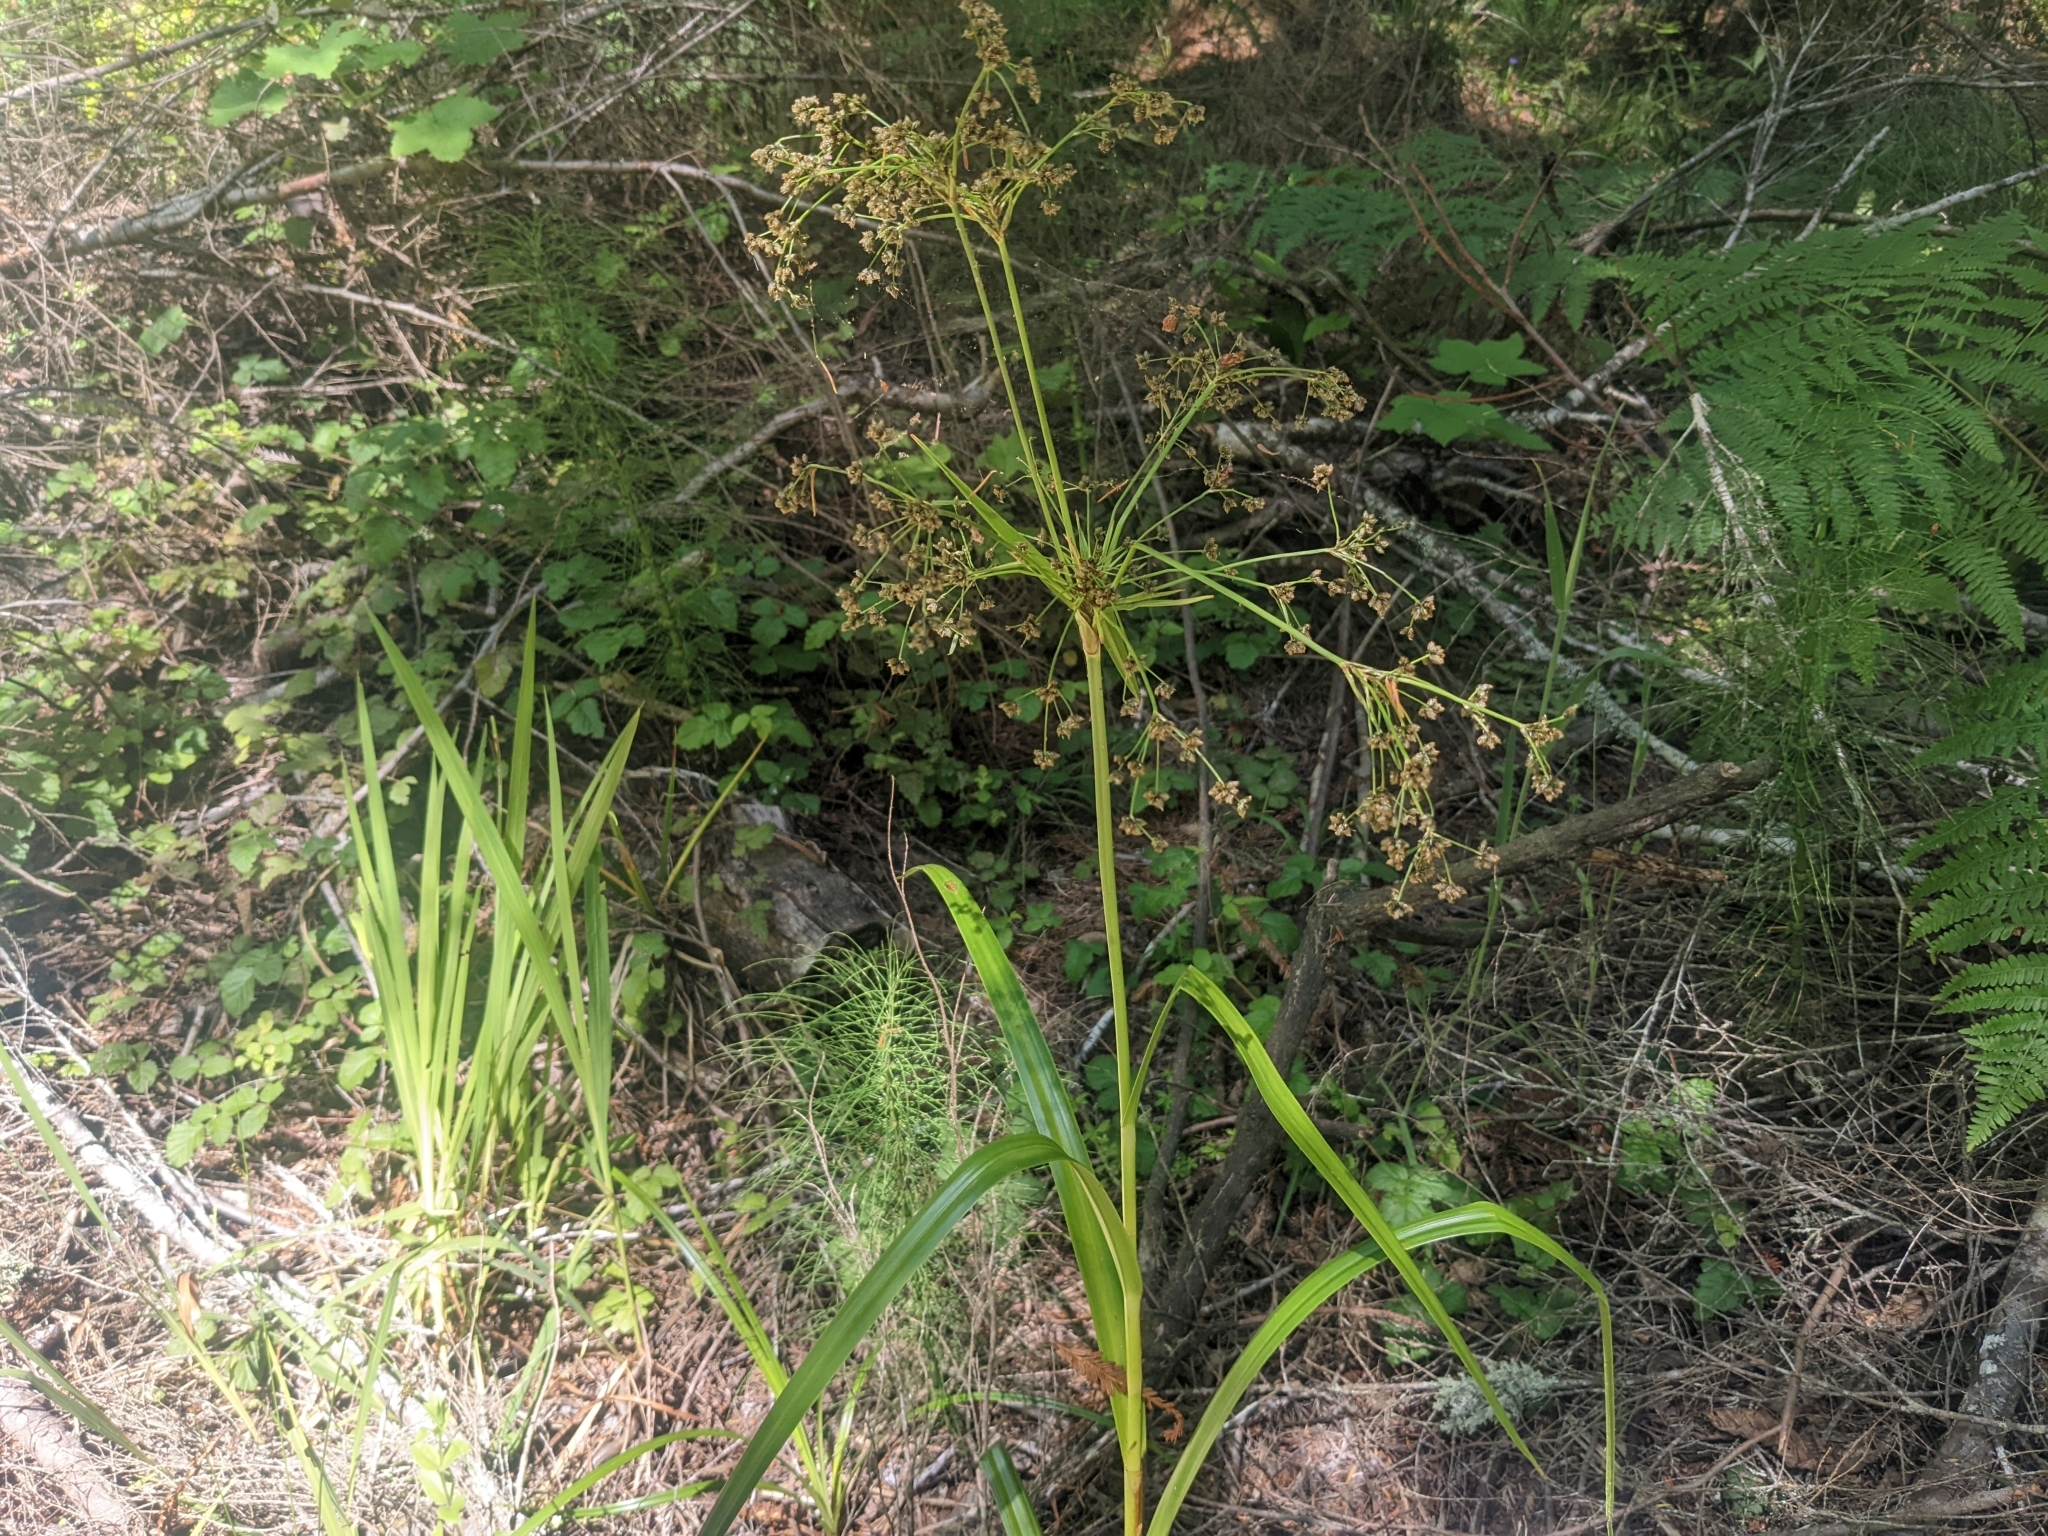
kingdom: Plantae
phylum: Tracheophyta
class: Liliopsida
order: Poales
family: Cyperaceae
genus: Scirpus
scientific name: Scirpus microcarpus
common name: Panicled bulrush
